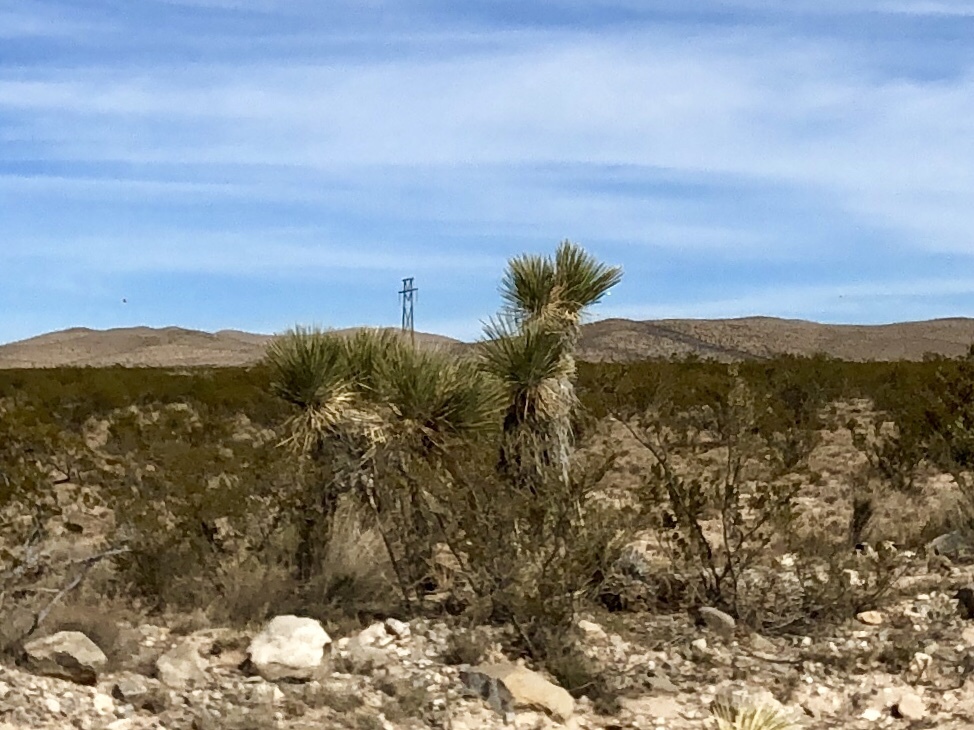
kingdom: Plantae
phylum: Tracheophyta
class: Liliopsida
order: Asparagales
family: Asparagaceae
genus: Yucca
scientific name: Yucca elata
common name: Palmella
